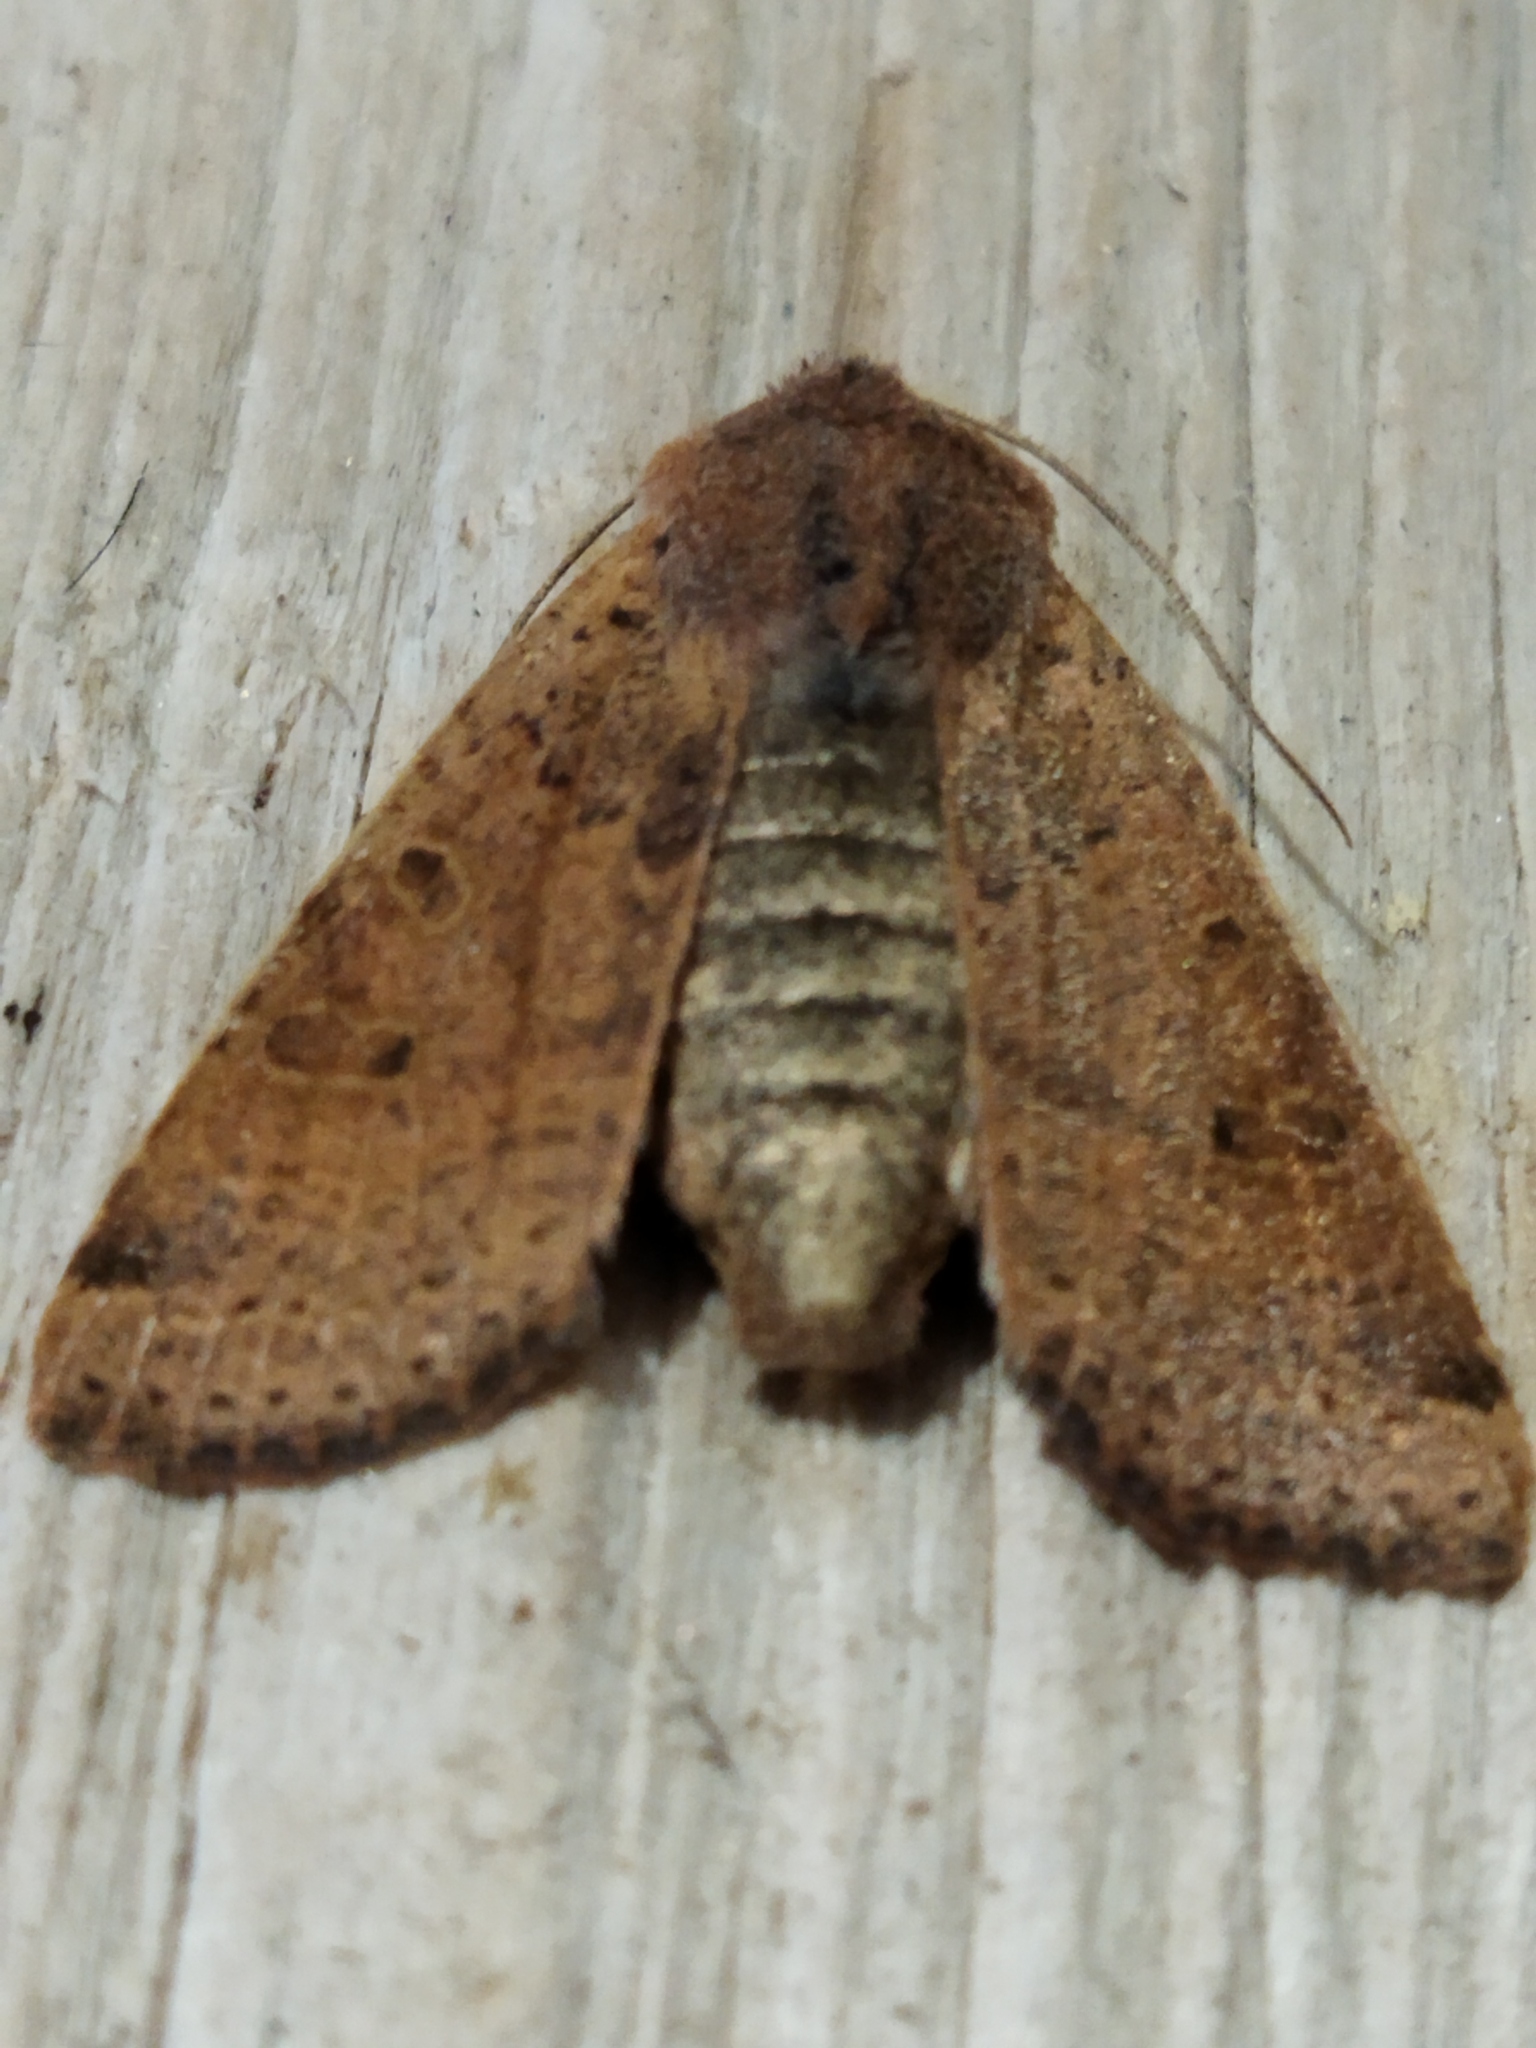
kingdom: Animalia
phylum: Arthropoda
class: Insecta
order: Lepidoptera
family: Noctuidae
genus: Agrochola
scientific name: Agrochola lychnidis
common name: Beaded chestnut
